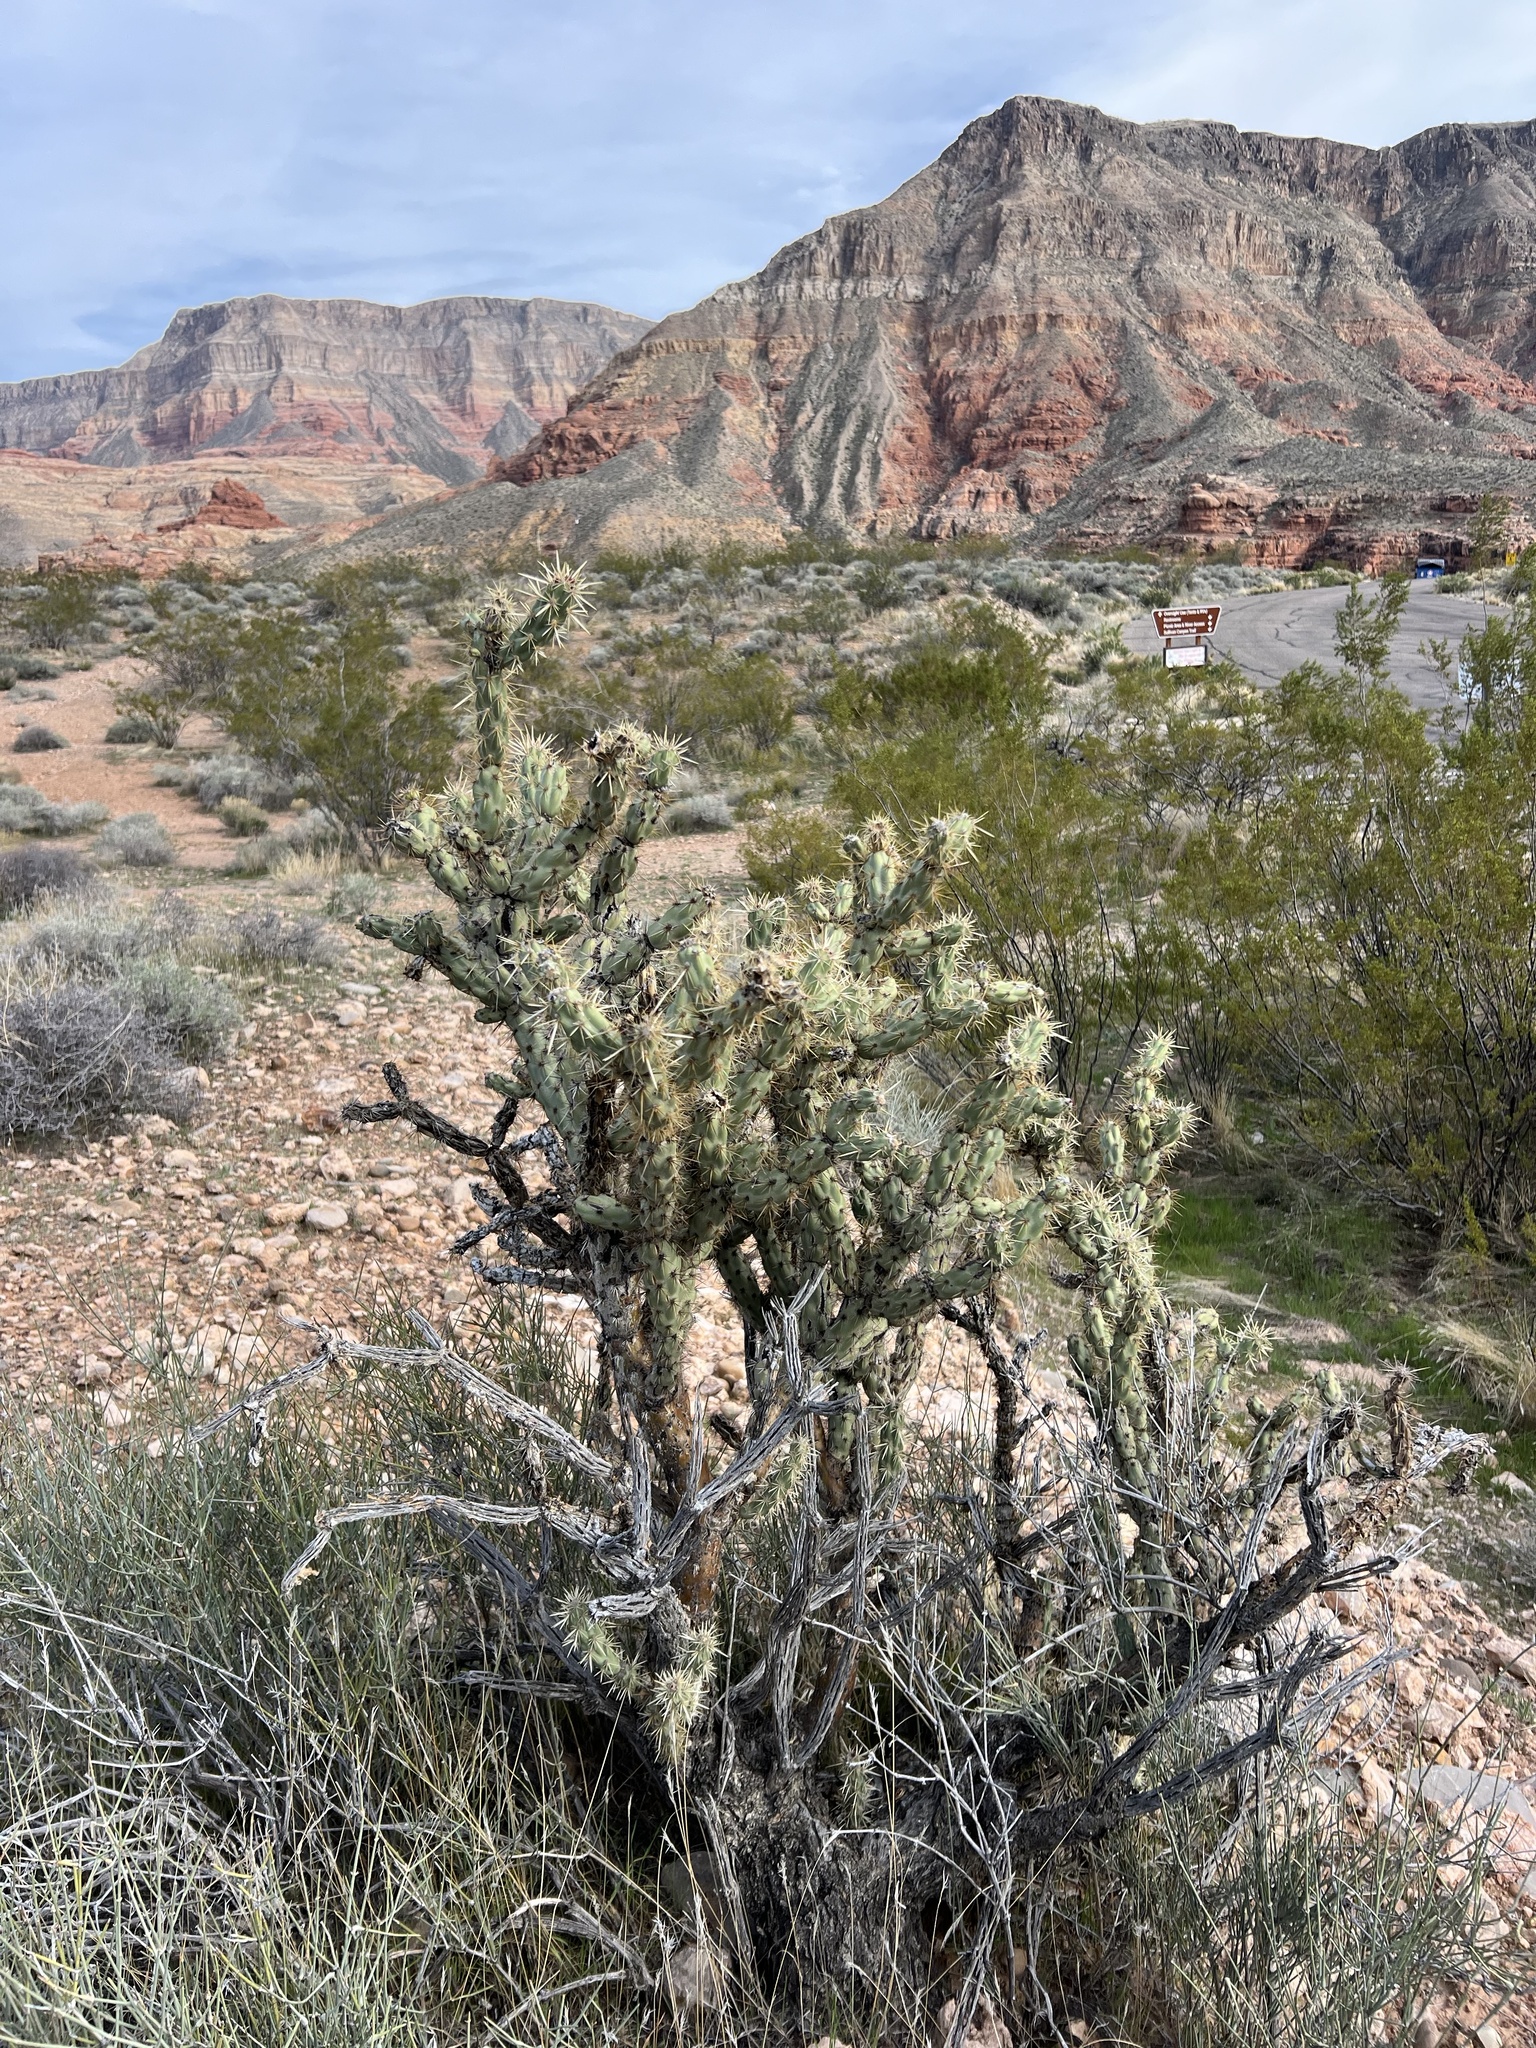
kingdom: Plantae
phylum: Tracheophyta
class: Magnoliopsida
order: Caryophyllales
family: Cactaceae
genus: Cylindropuntia
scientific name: Cylindropuntia acanthocarpa
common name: Buckhorn cholla
